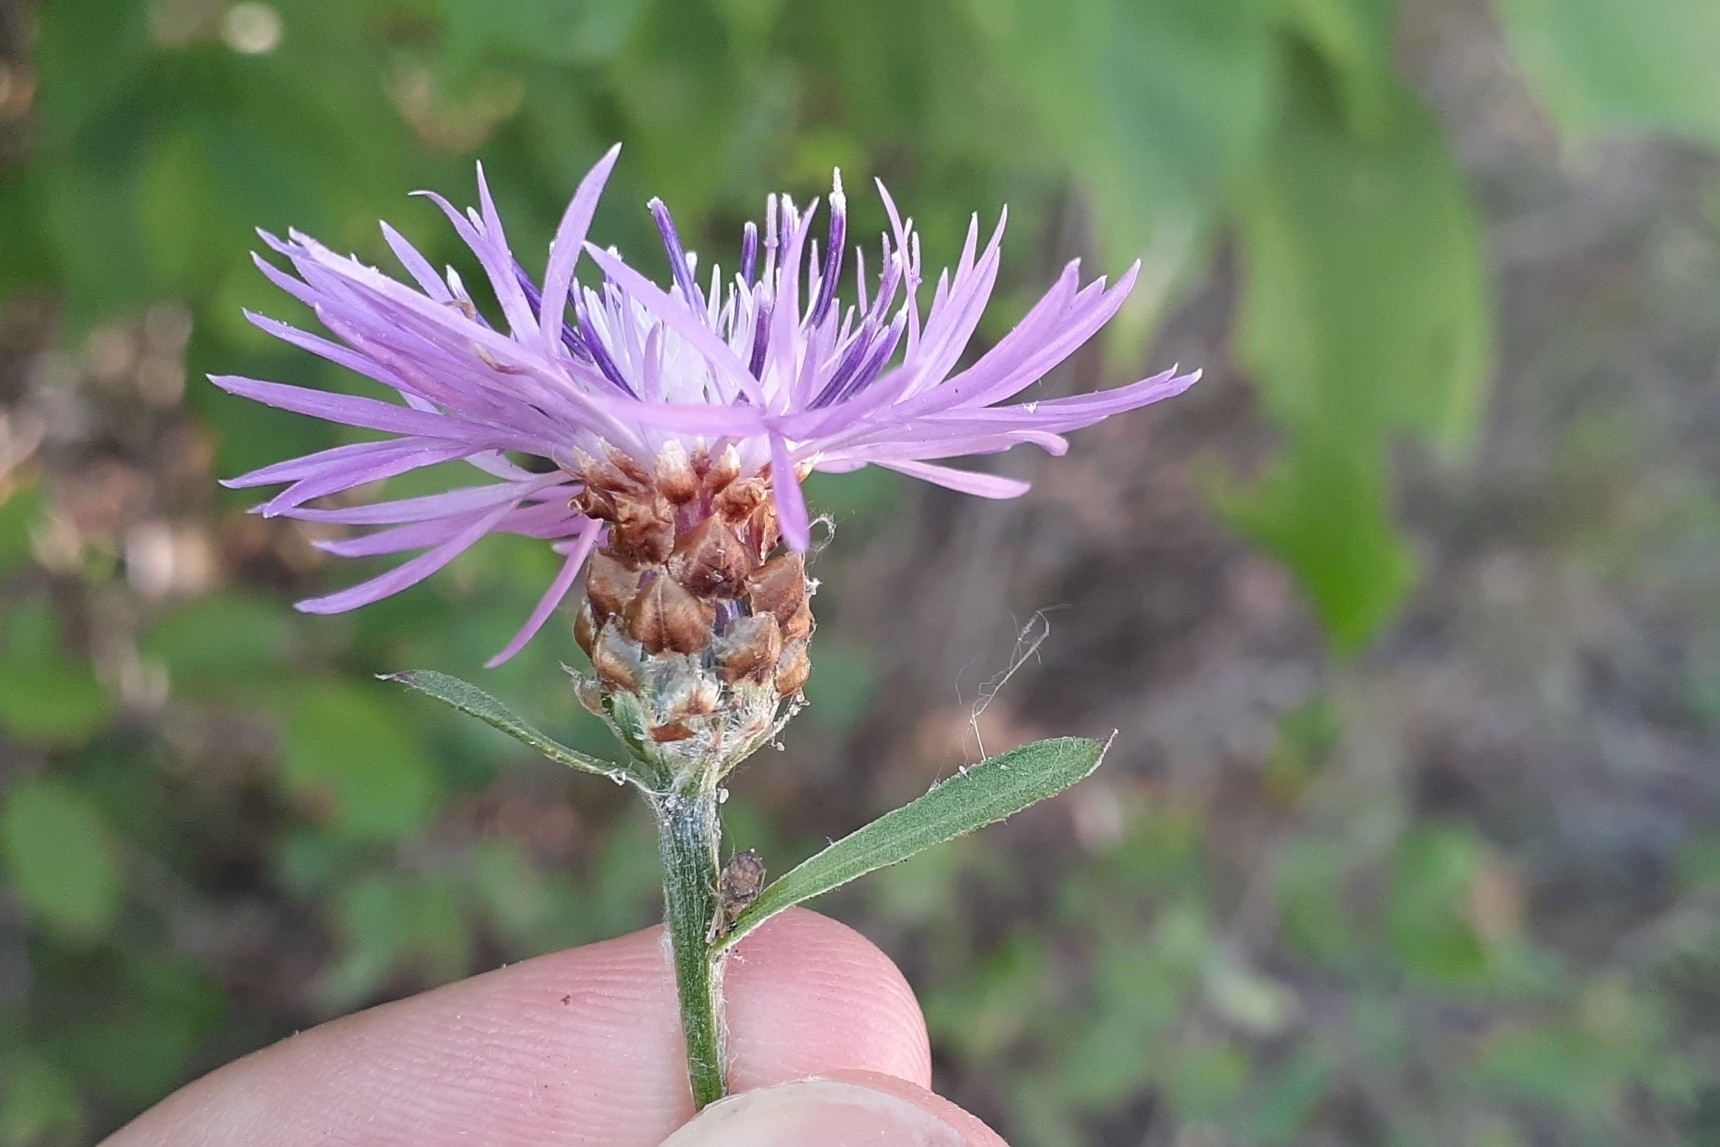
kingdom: Plantae
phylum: Tracheophyta
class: Magnoliopsida
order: Asterales
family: Asteraceae
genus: Centaurea
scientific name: Centaurea moncktonii
